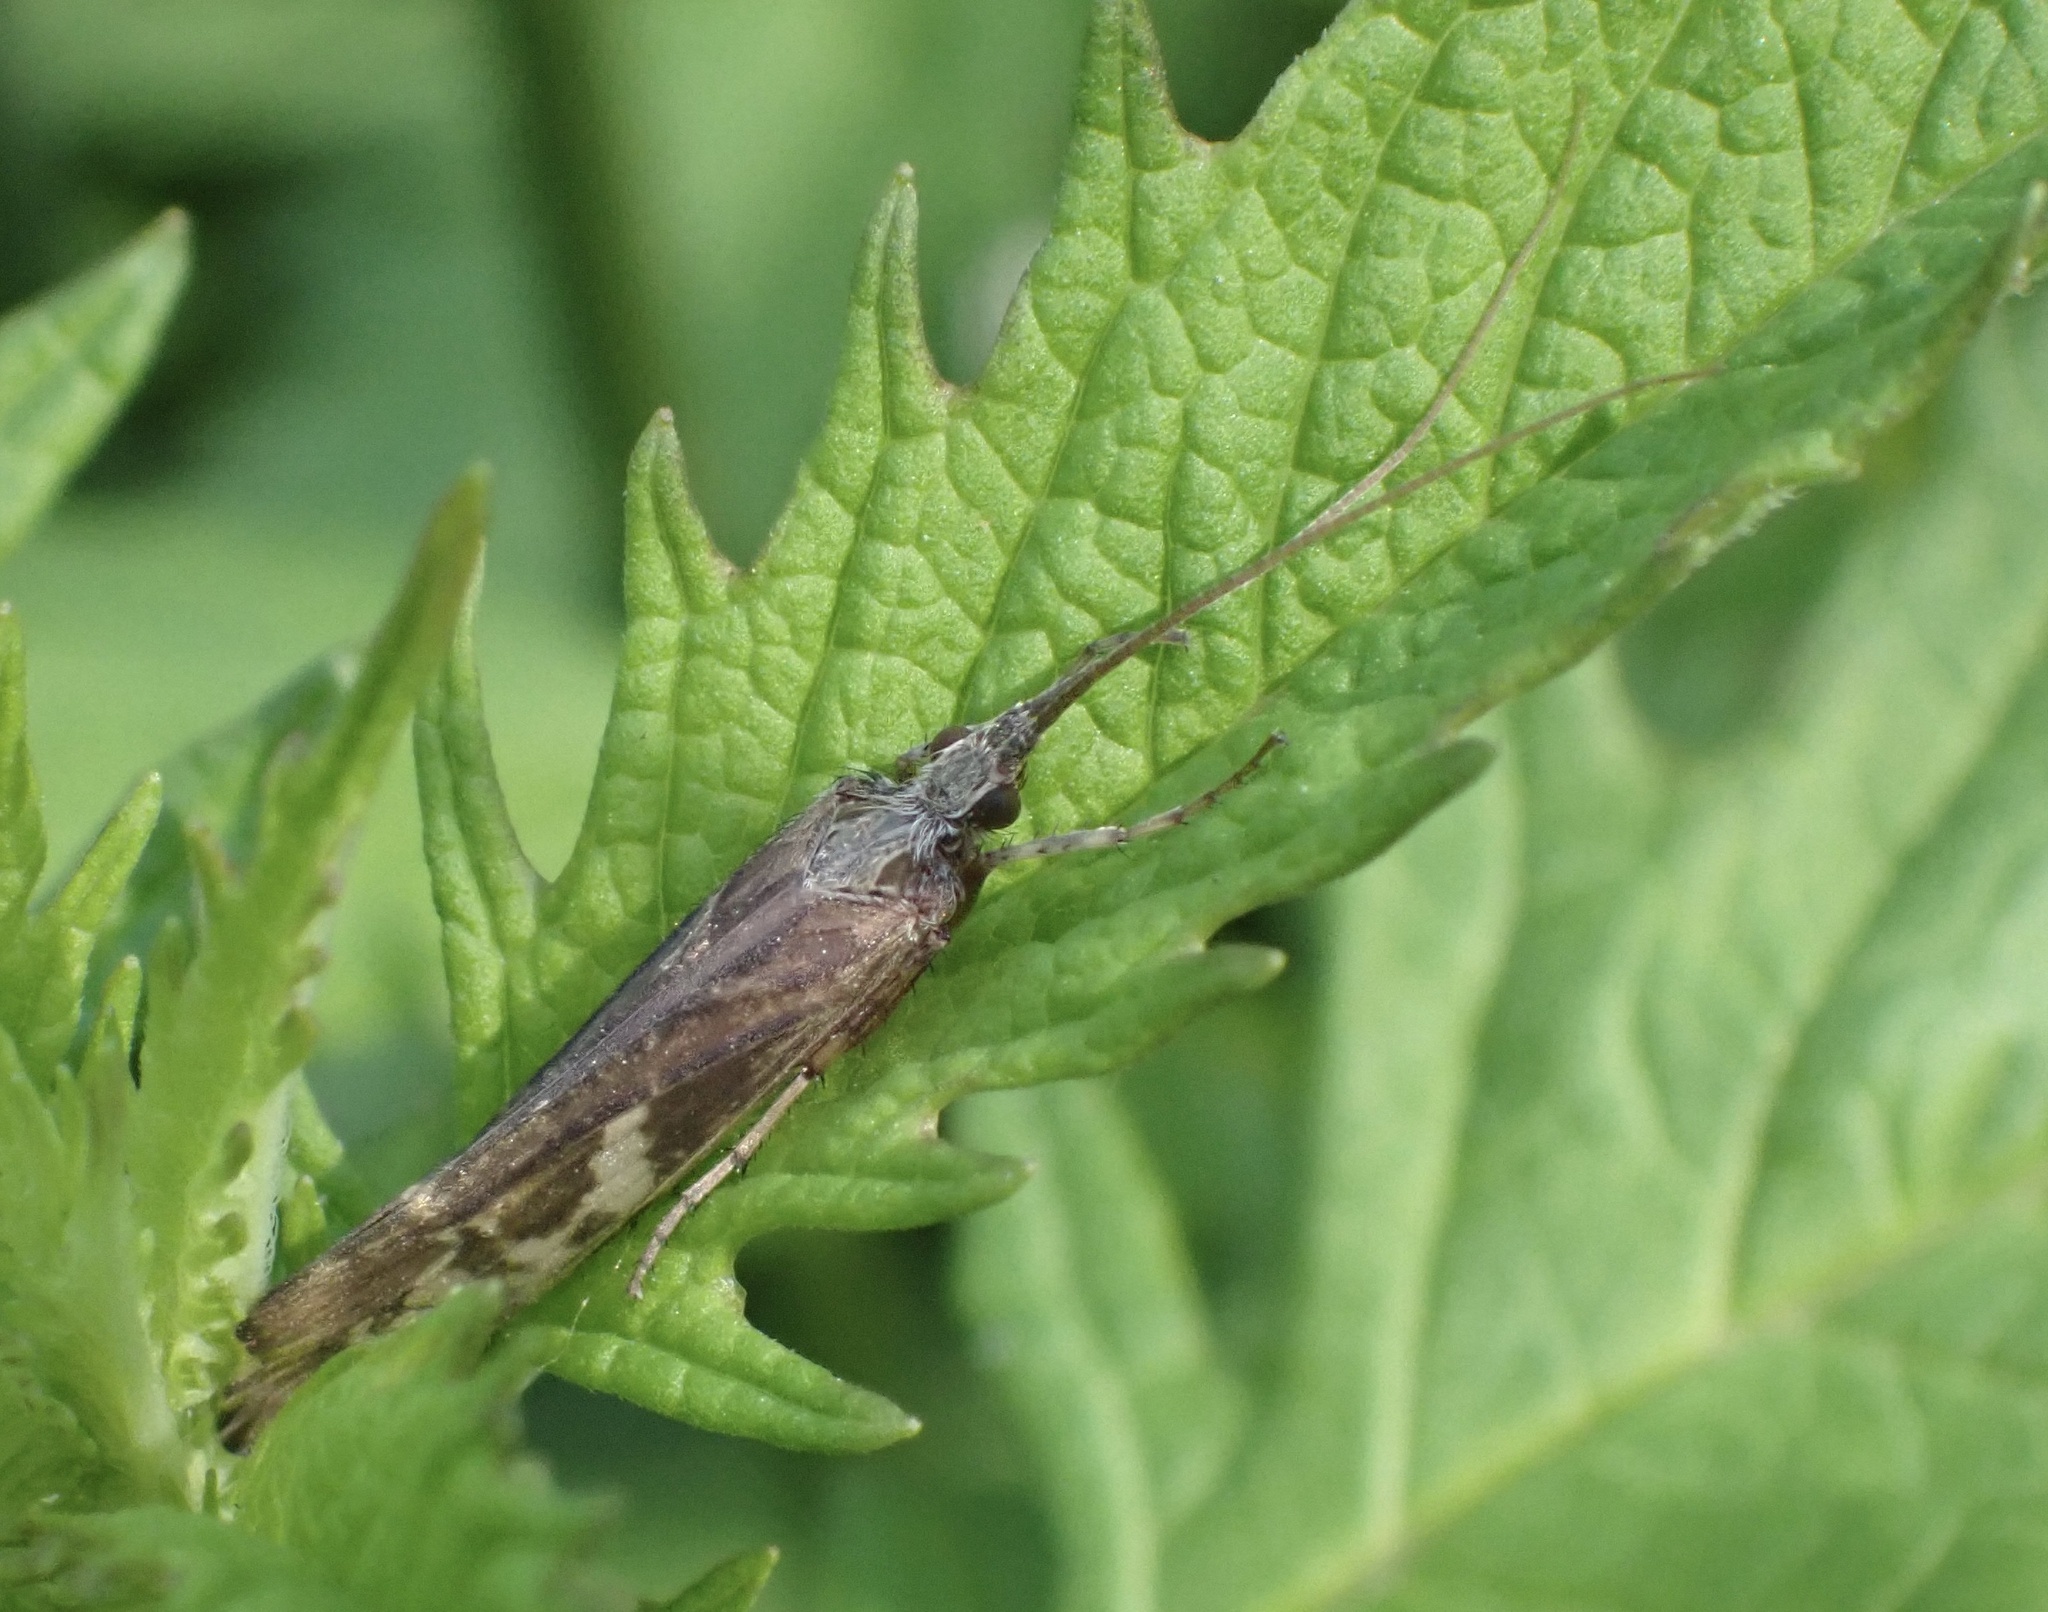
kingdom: Animalia
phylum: Arthropoda
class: Insecta
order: Trichoptera
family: Limnephilidae
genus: Glyphotaelius
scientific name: Glyphotaelius pellucidus
